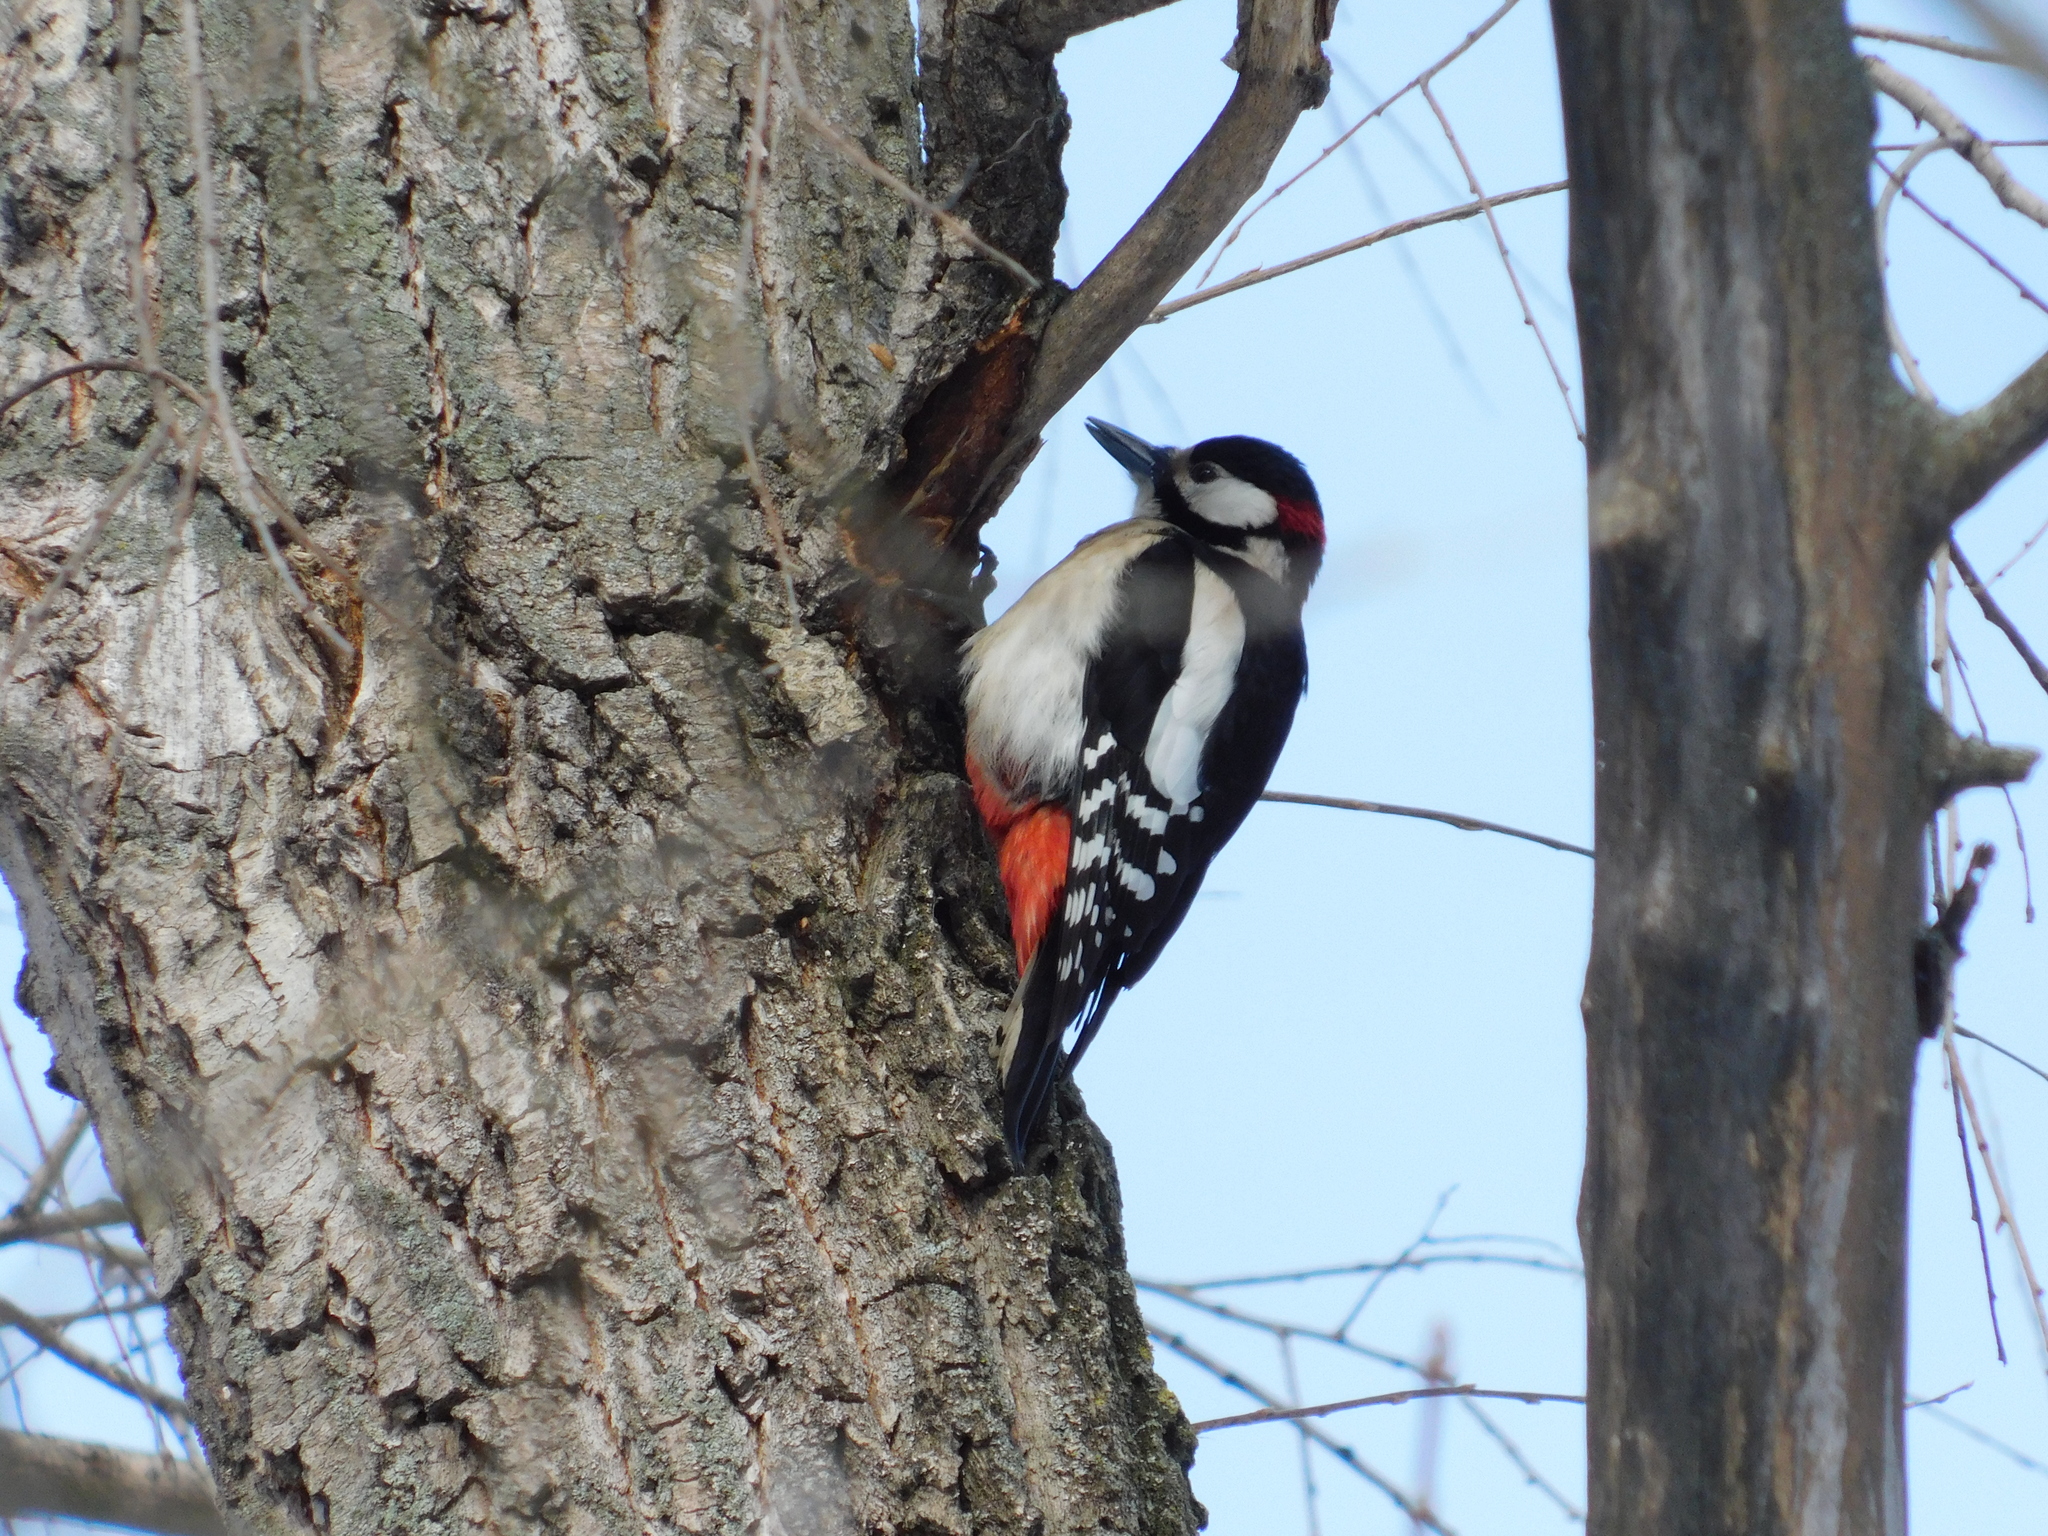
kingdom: Animalia
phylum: Chordata
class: Aves
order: Piciformes
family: Picidae
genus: Dendrocopos
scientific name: Dendrocopos major
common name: Great spotted woodpecker
